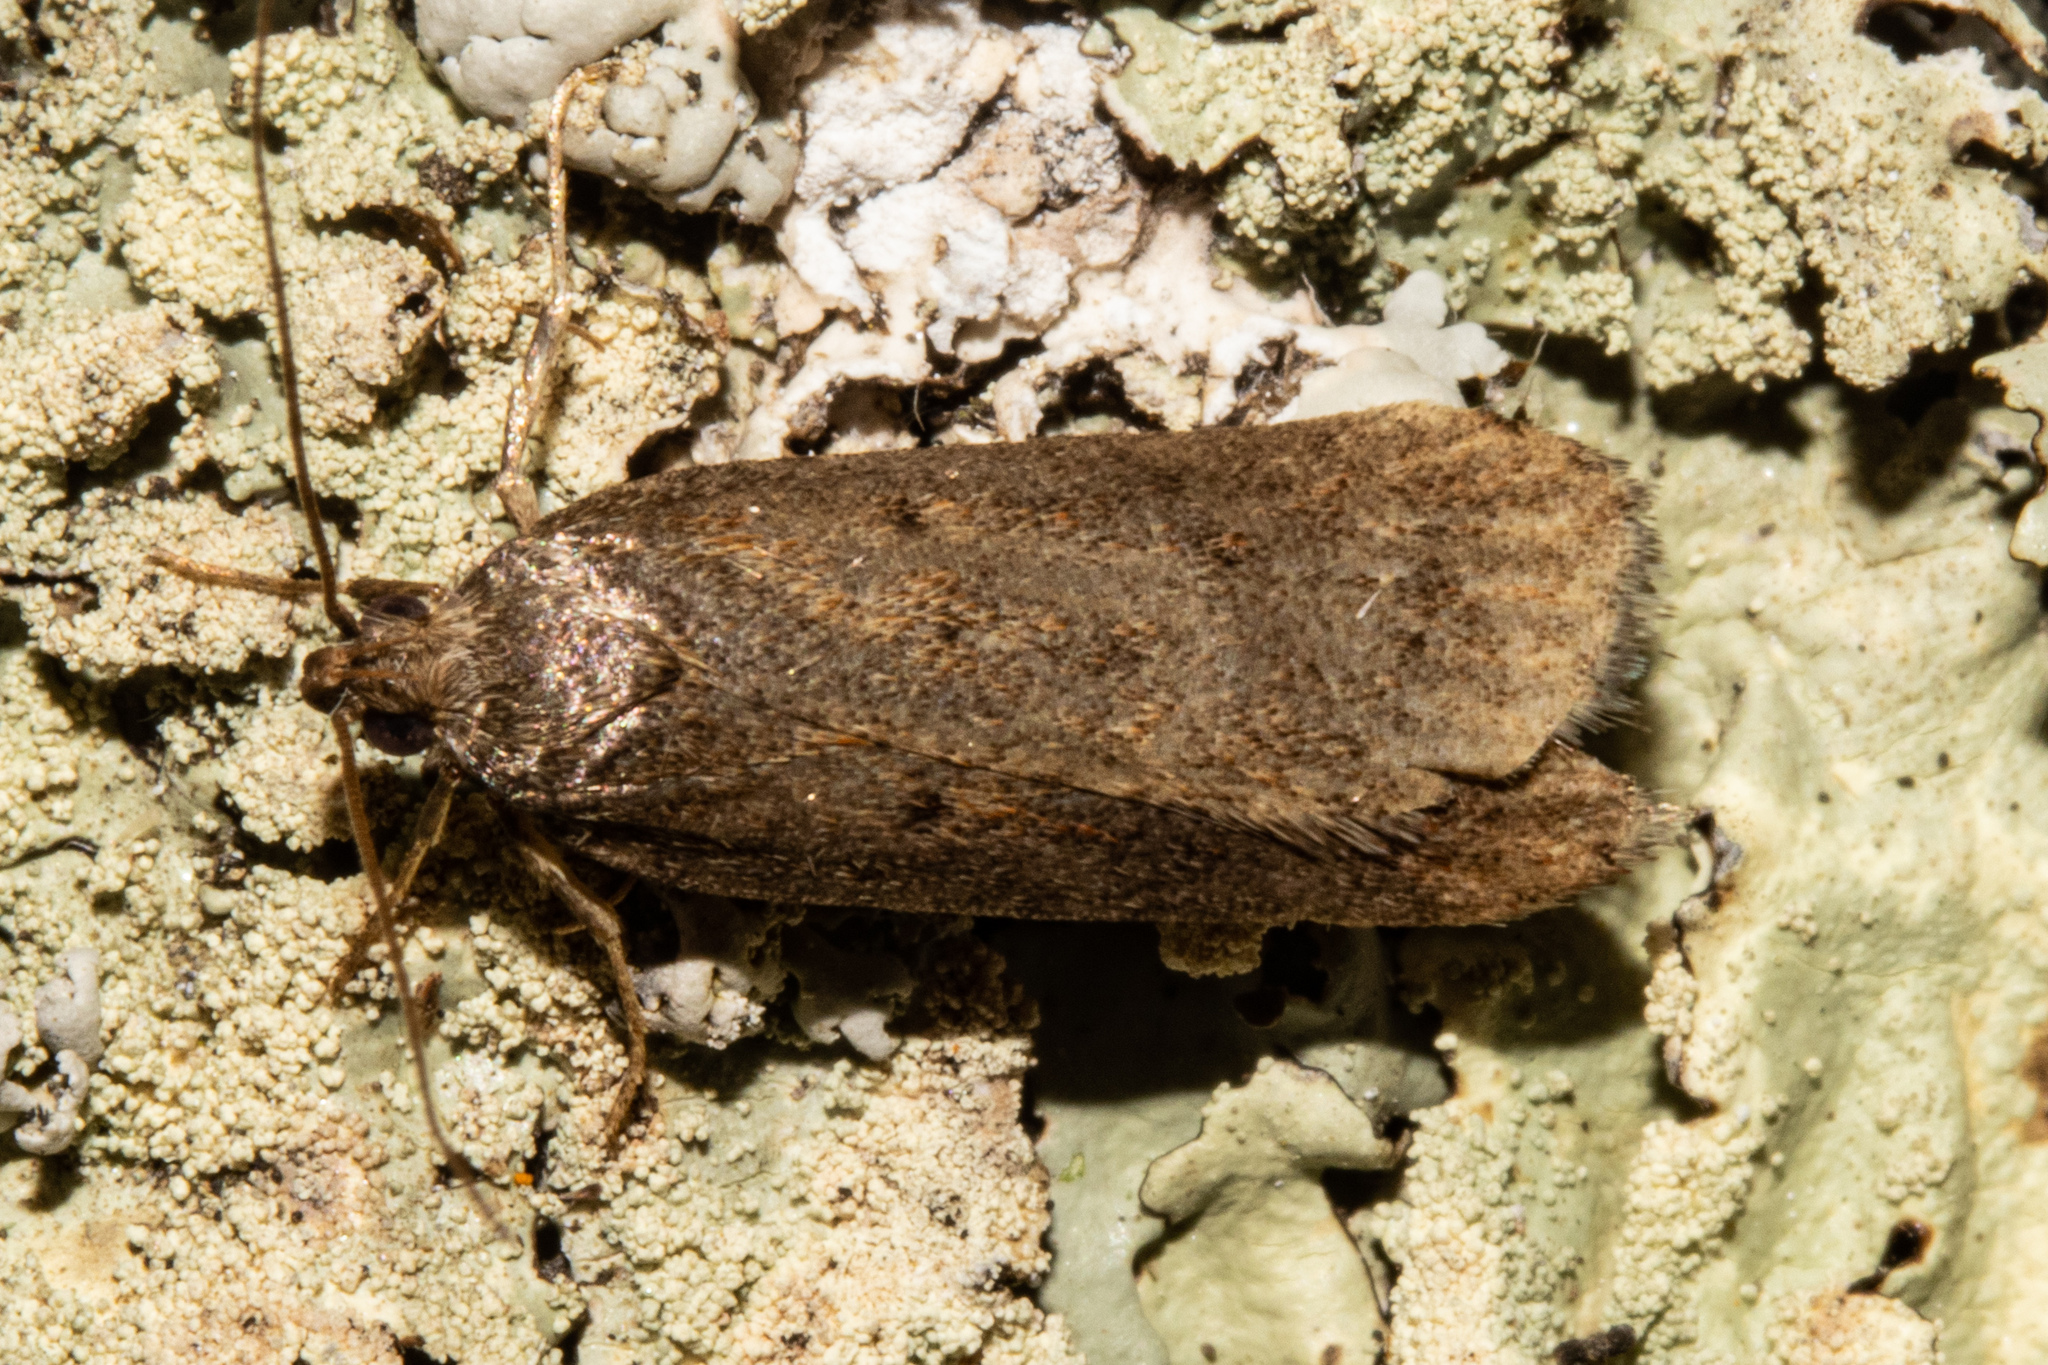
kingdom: Animalia
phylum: Arthropoda
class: Insecta
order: Lepidoptera
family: Depressariidae
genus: Phaeosaces
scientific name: Phaeosaces apocrypta
